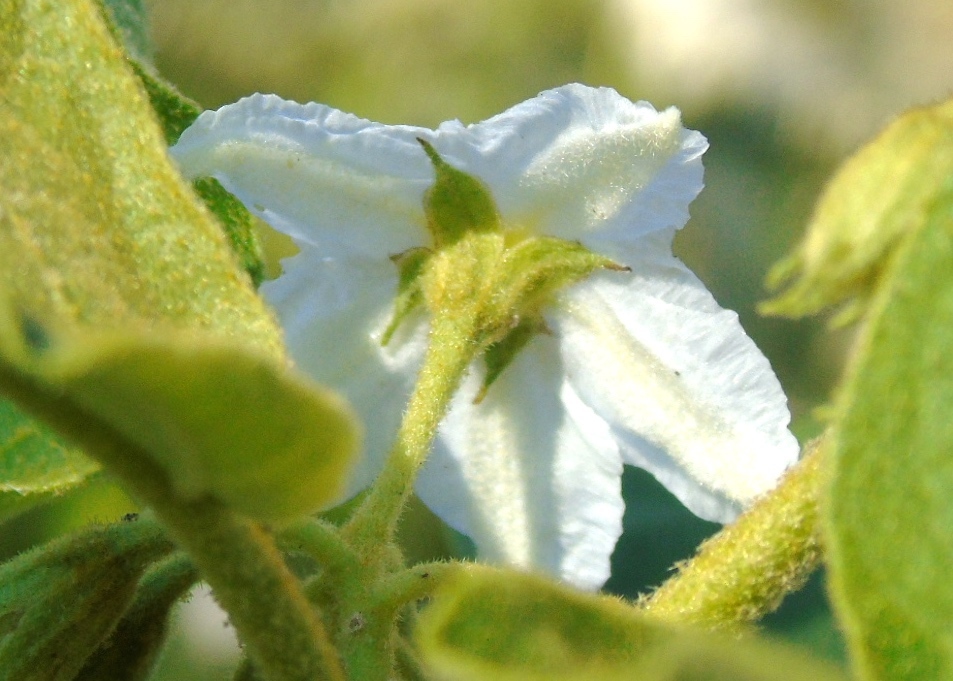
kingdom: Plantae
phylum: Tracheophyta
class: Magnoliopsida
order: Solanales
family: Solanaceae
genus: Solanum
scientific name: Solanum ferrugineum
